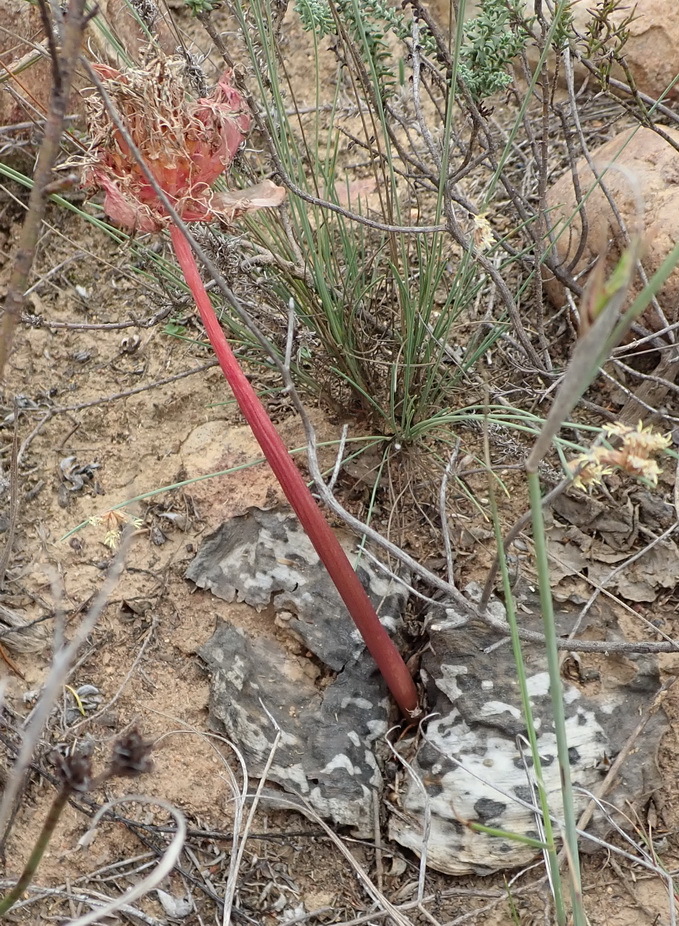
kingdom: Plantae
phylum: Tracheophyta
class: Liliopsida
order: Asparagales
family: Amaryllidaceae
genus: Haemanthus
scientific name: Haemanthus sanguineus
